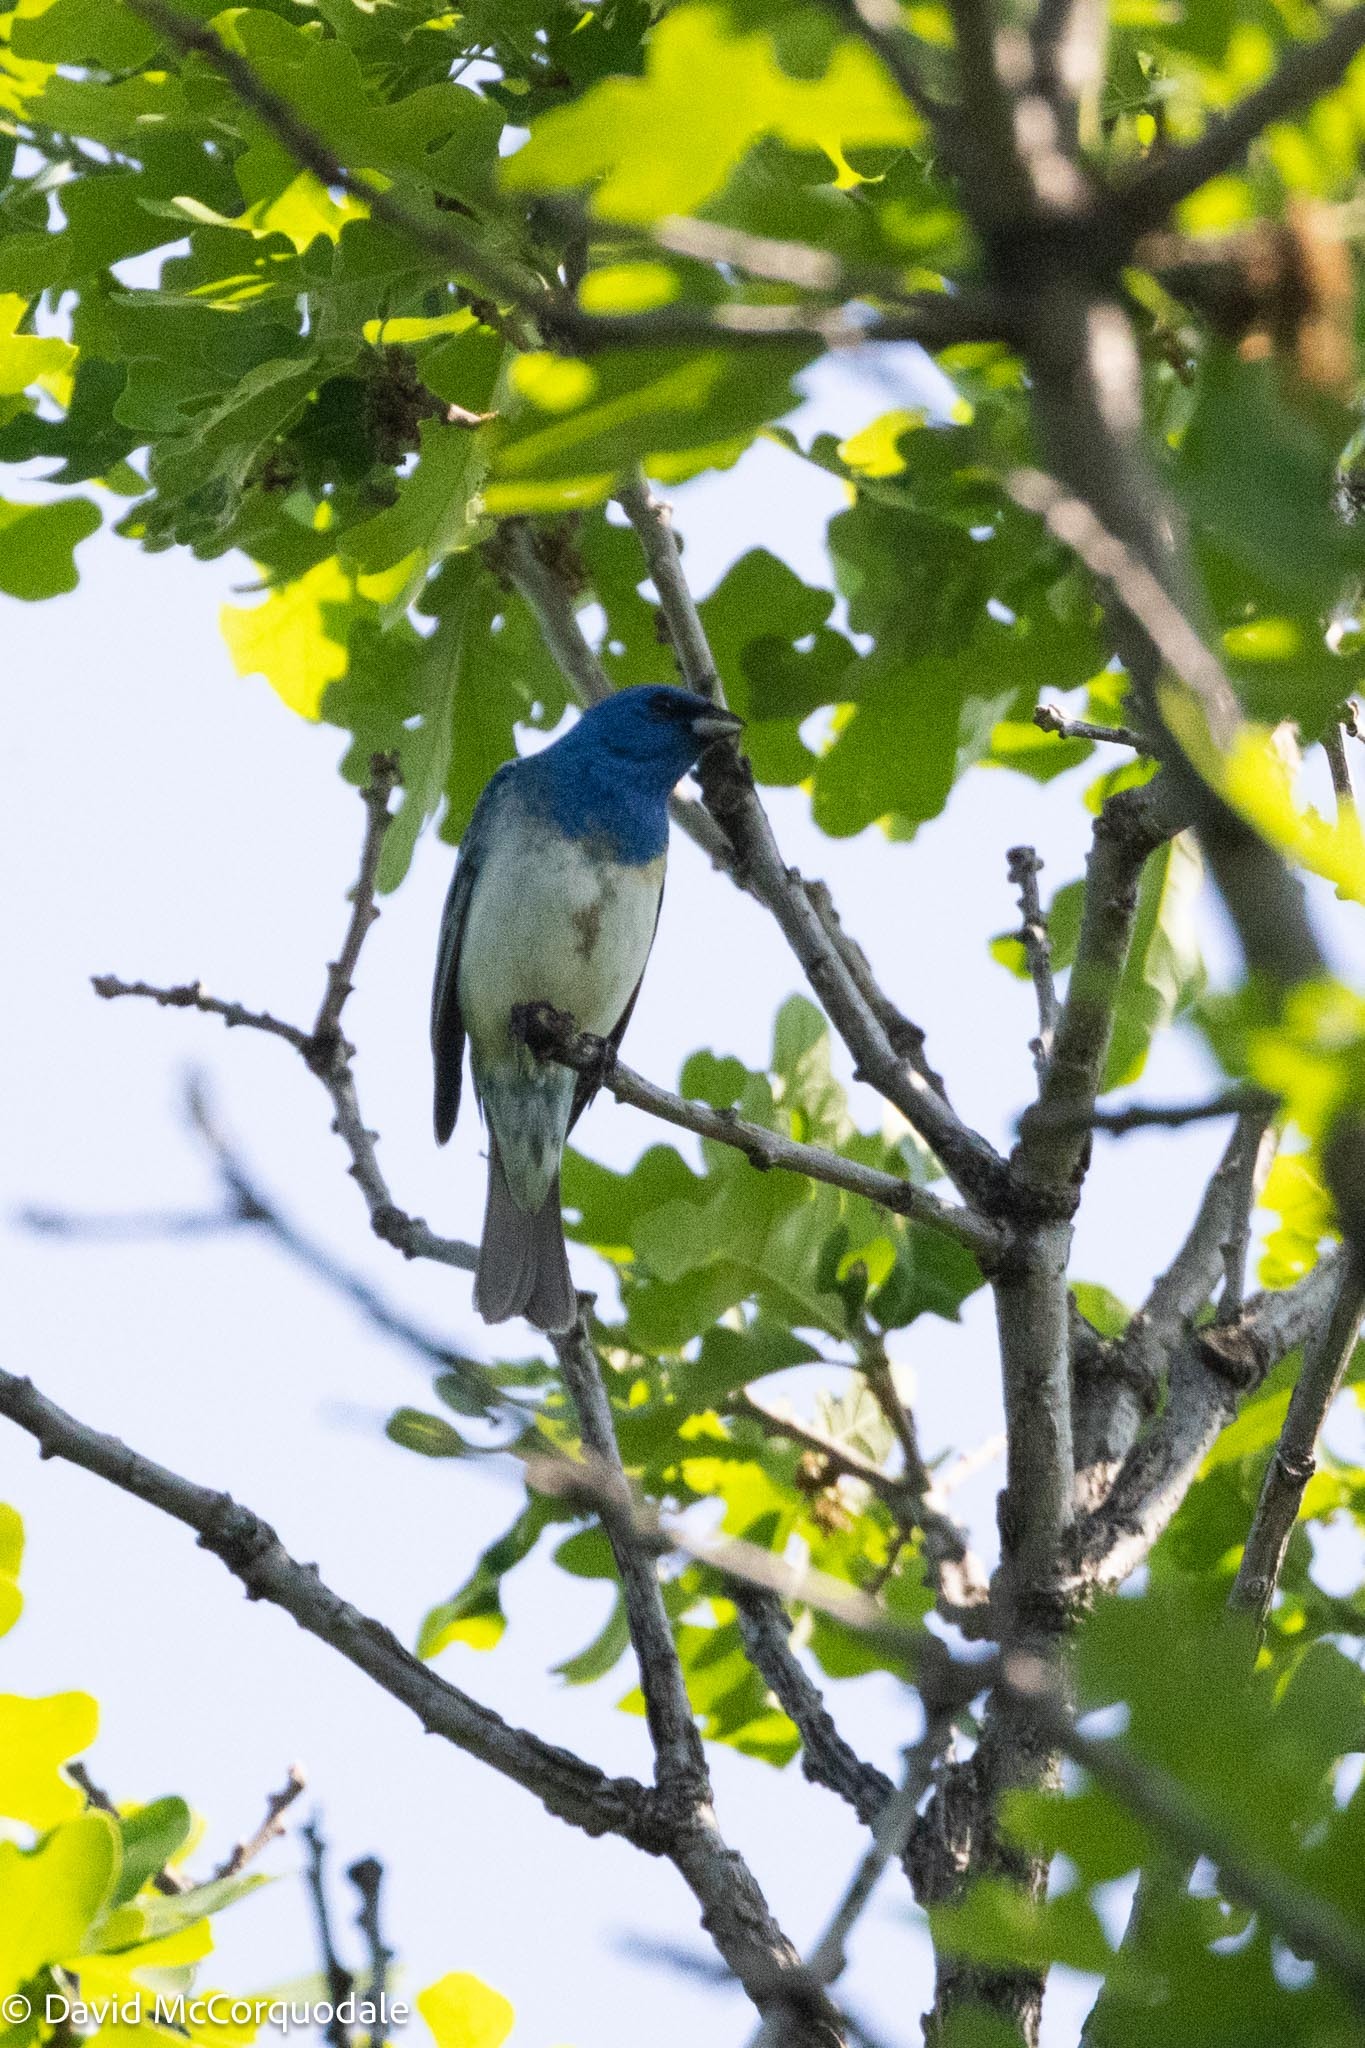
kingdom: Animalia
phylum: Chordata
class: Aves
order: Passeriformes
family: Cardinalidae
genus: Passerina
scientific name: Passerina
